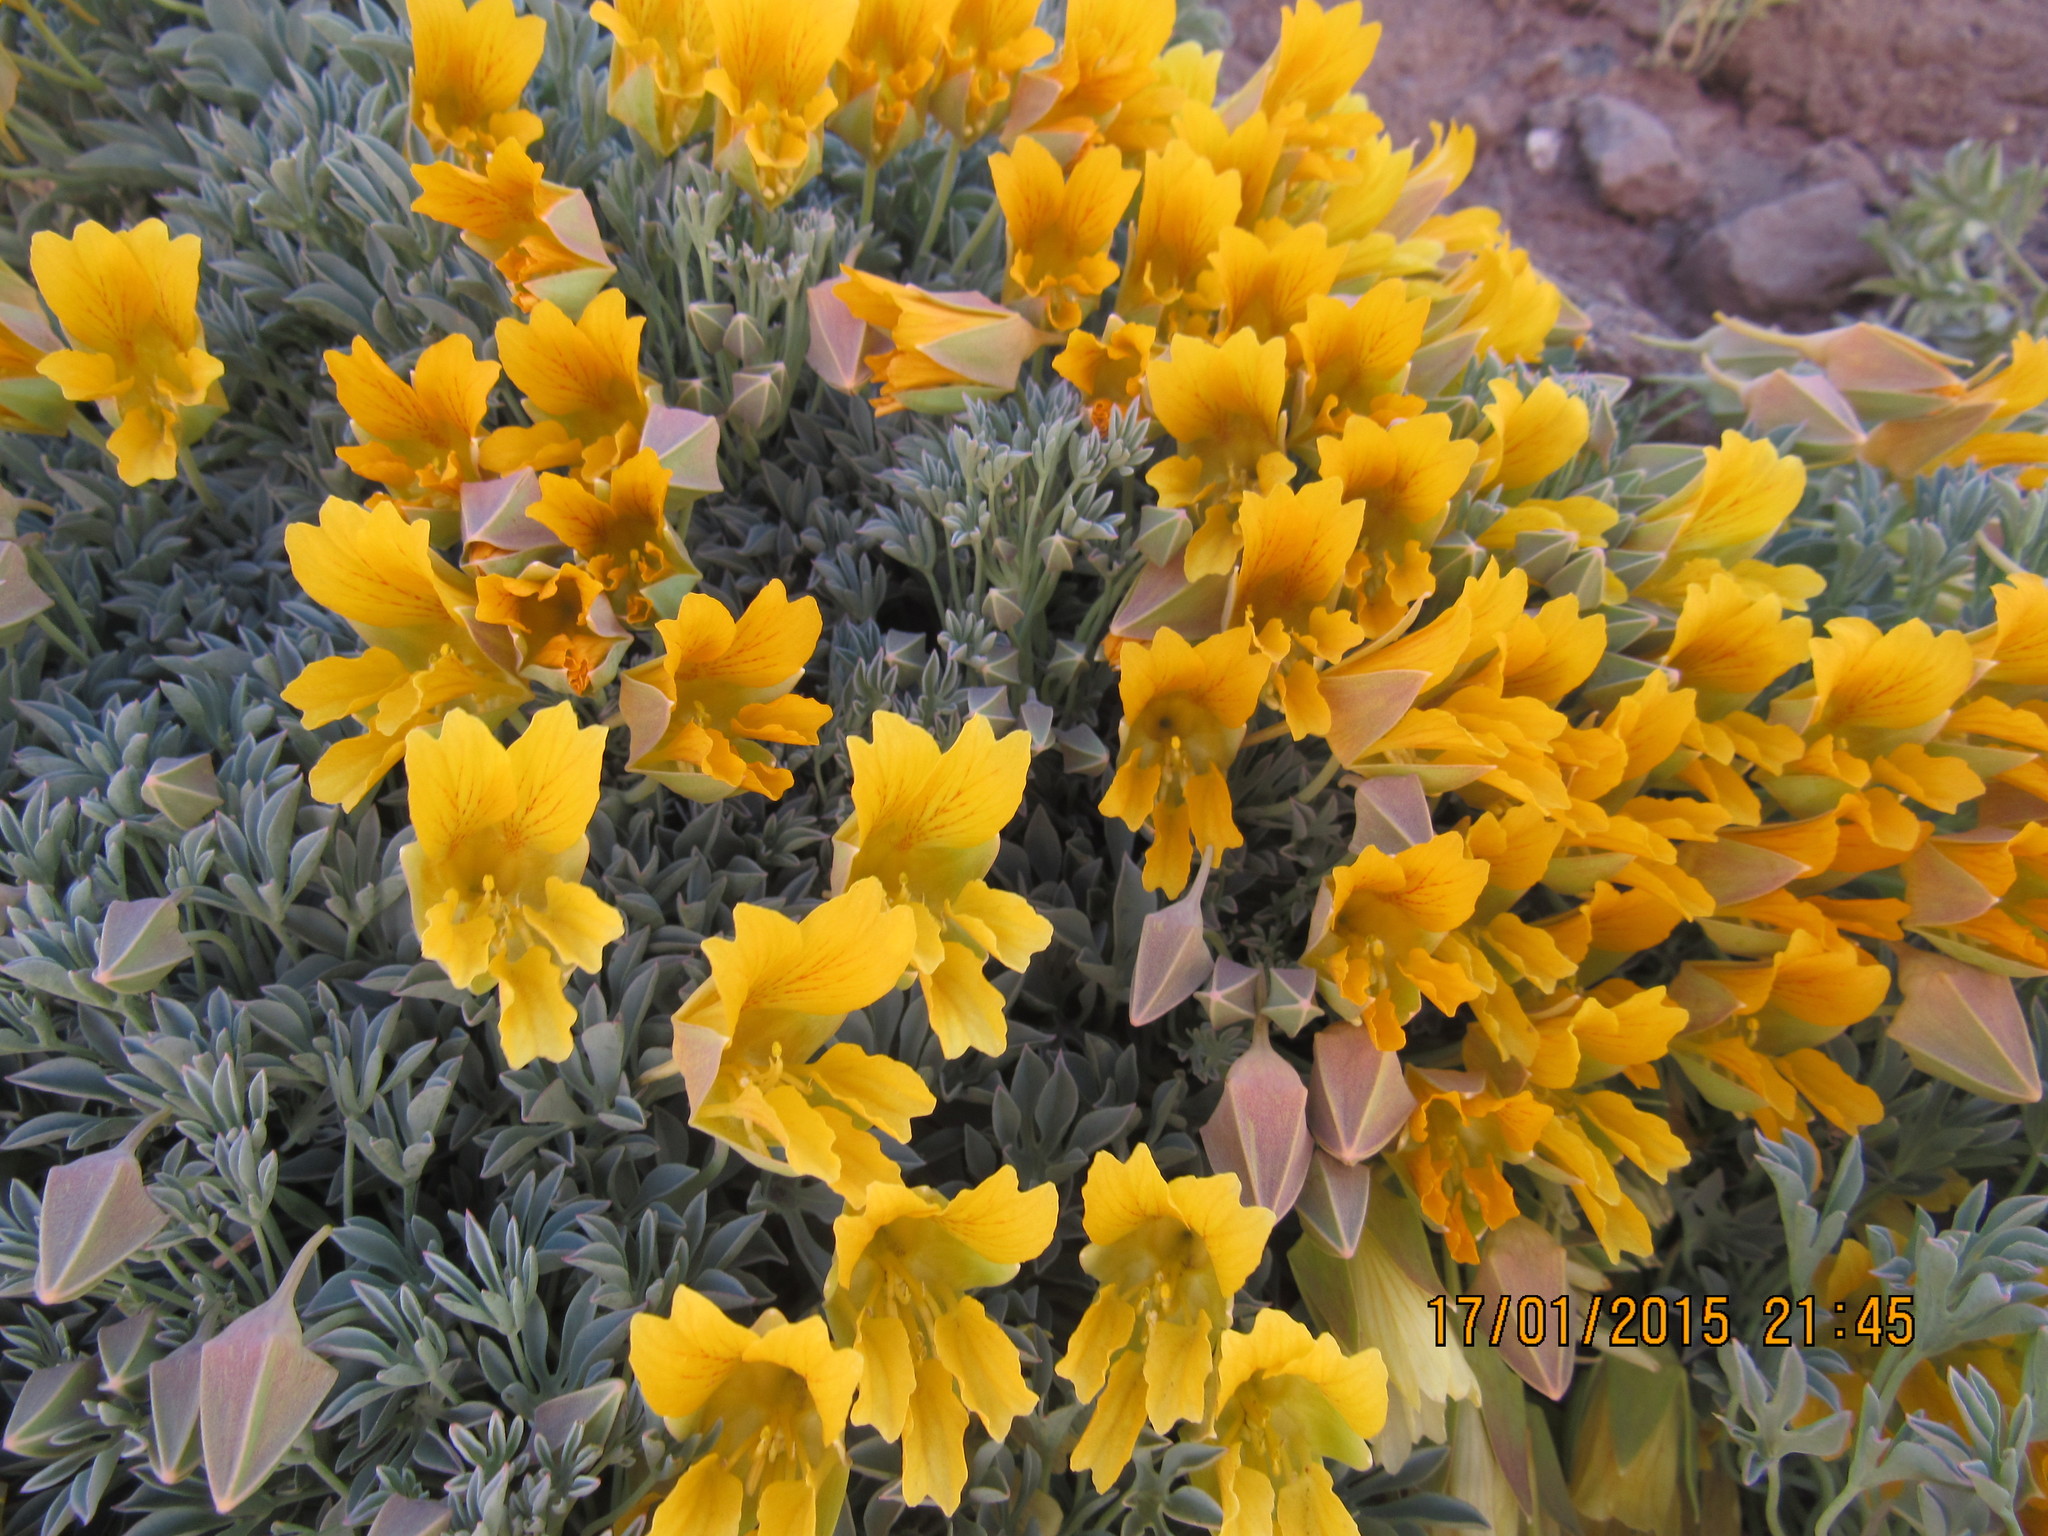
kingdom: Plantae
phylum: Tracheophyta
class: Magnoliopsida
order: Brassicales
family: Tropaeolaceae
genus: Tropaeolum
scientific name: Tropaeolum polyphyllum
